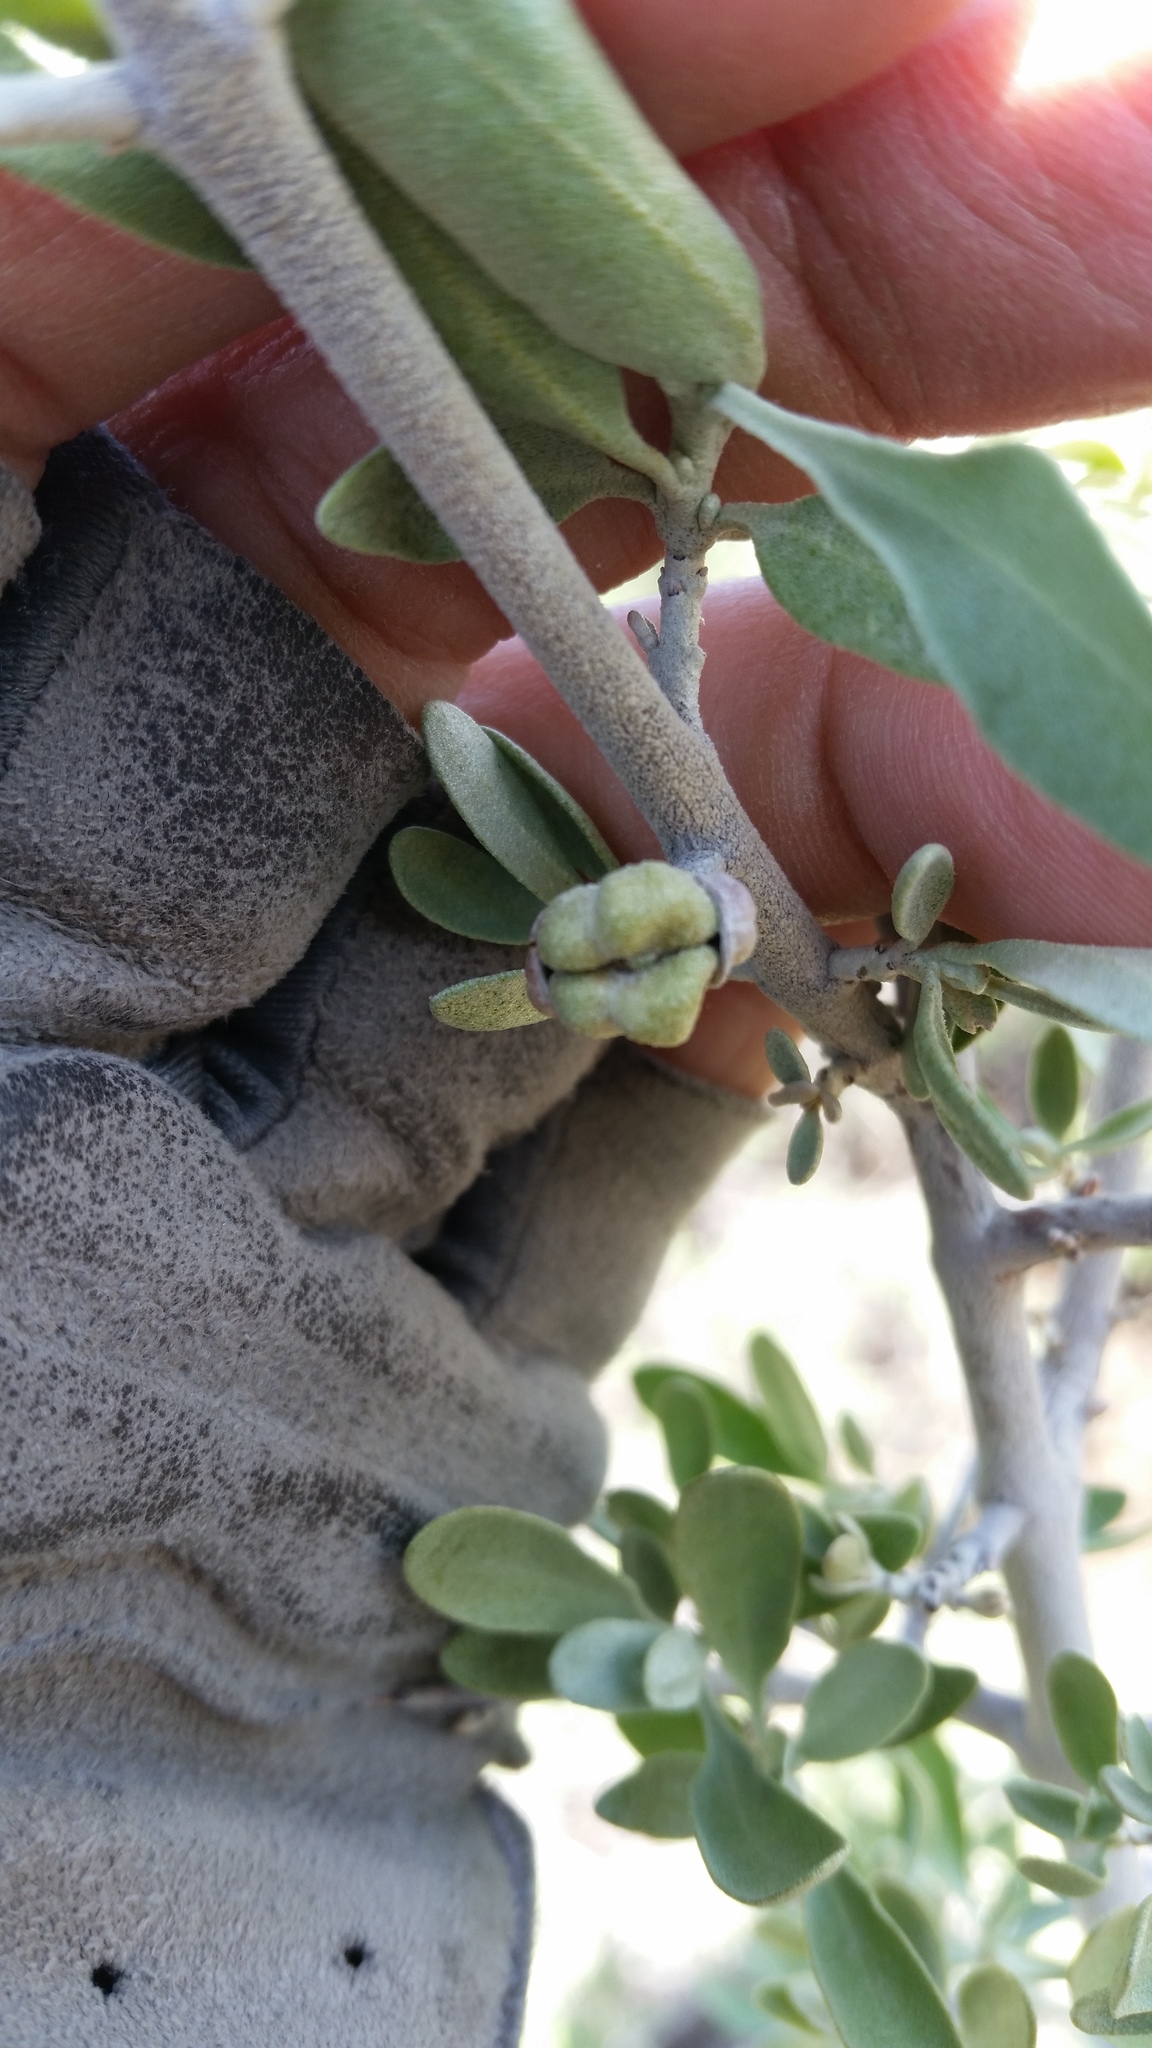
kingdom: Plantae
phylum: Tracheophyta
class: Magnoliopsida
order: Rosales
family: Elaeagnaceae
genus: Elaeagnus
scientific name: Elaeagnus angustifolia
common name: Russian olive
